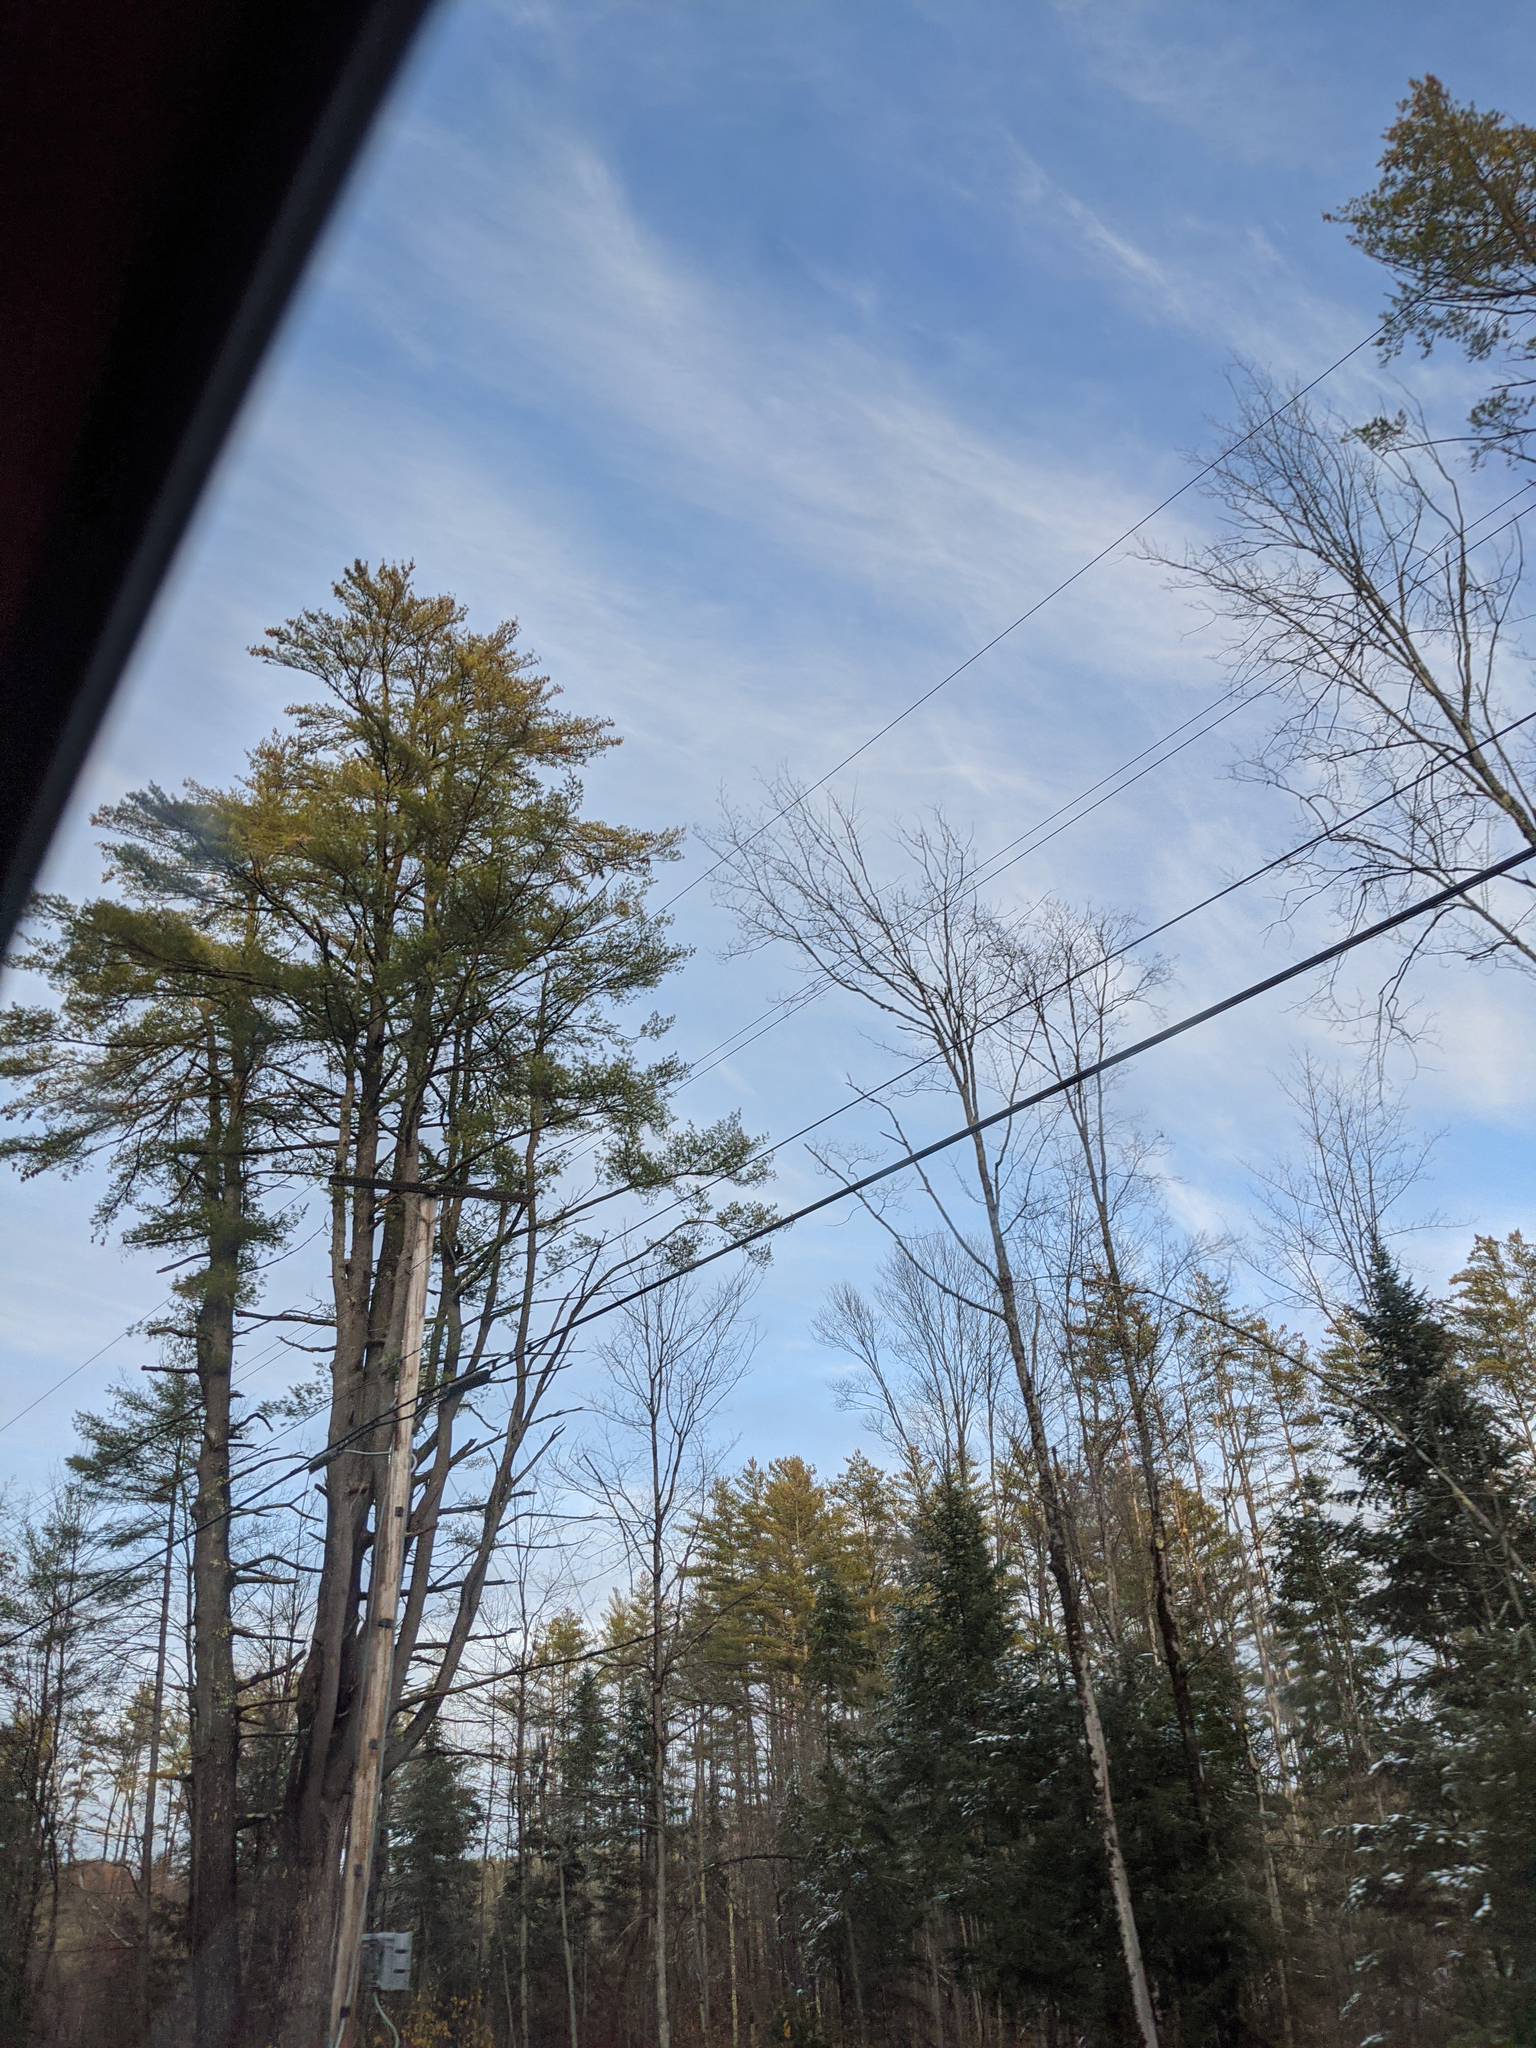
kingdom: Plantae
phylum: Tracheophyta
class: Pinopsida
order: Pinales
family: Pinaceae
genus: Pinus
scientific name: Pinus strobus
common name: Weymouth pine
